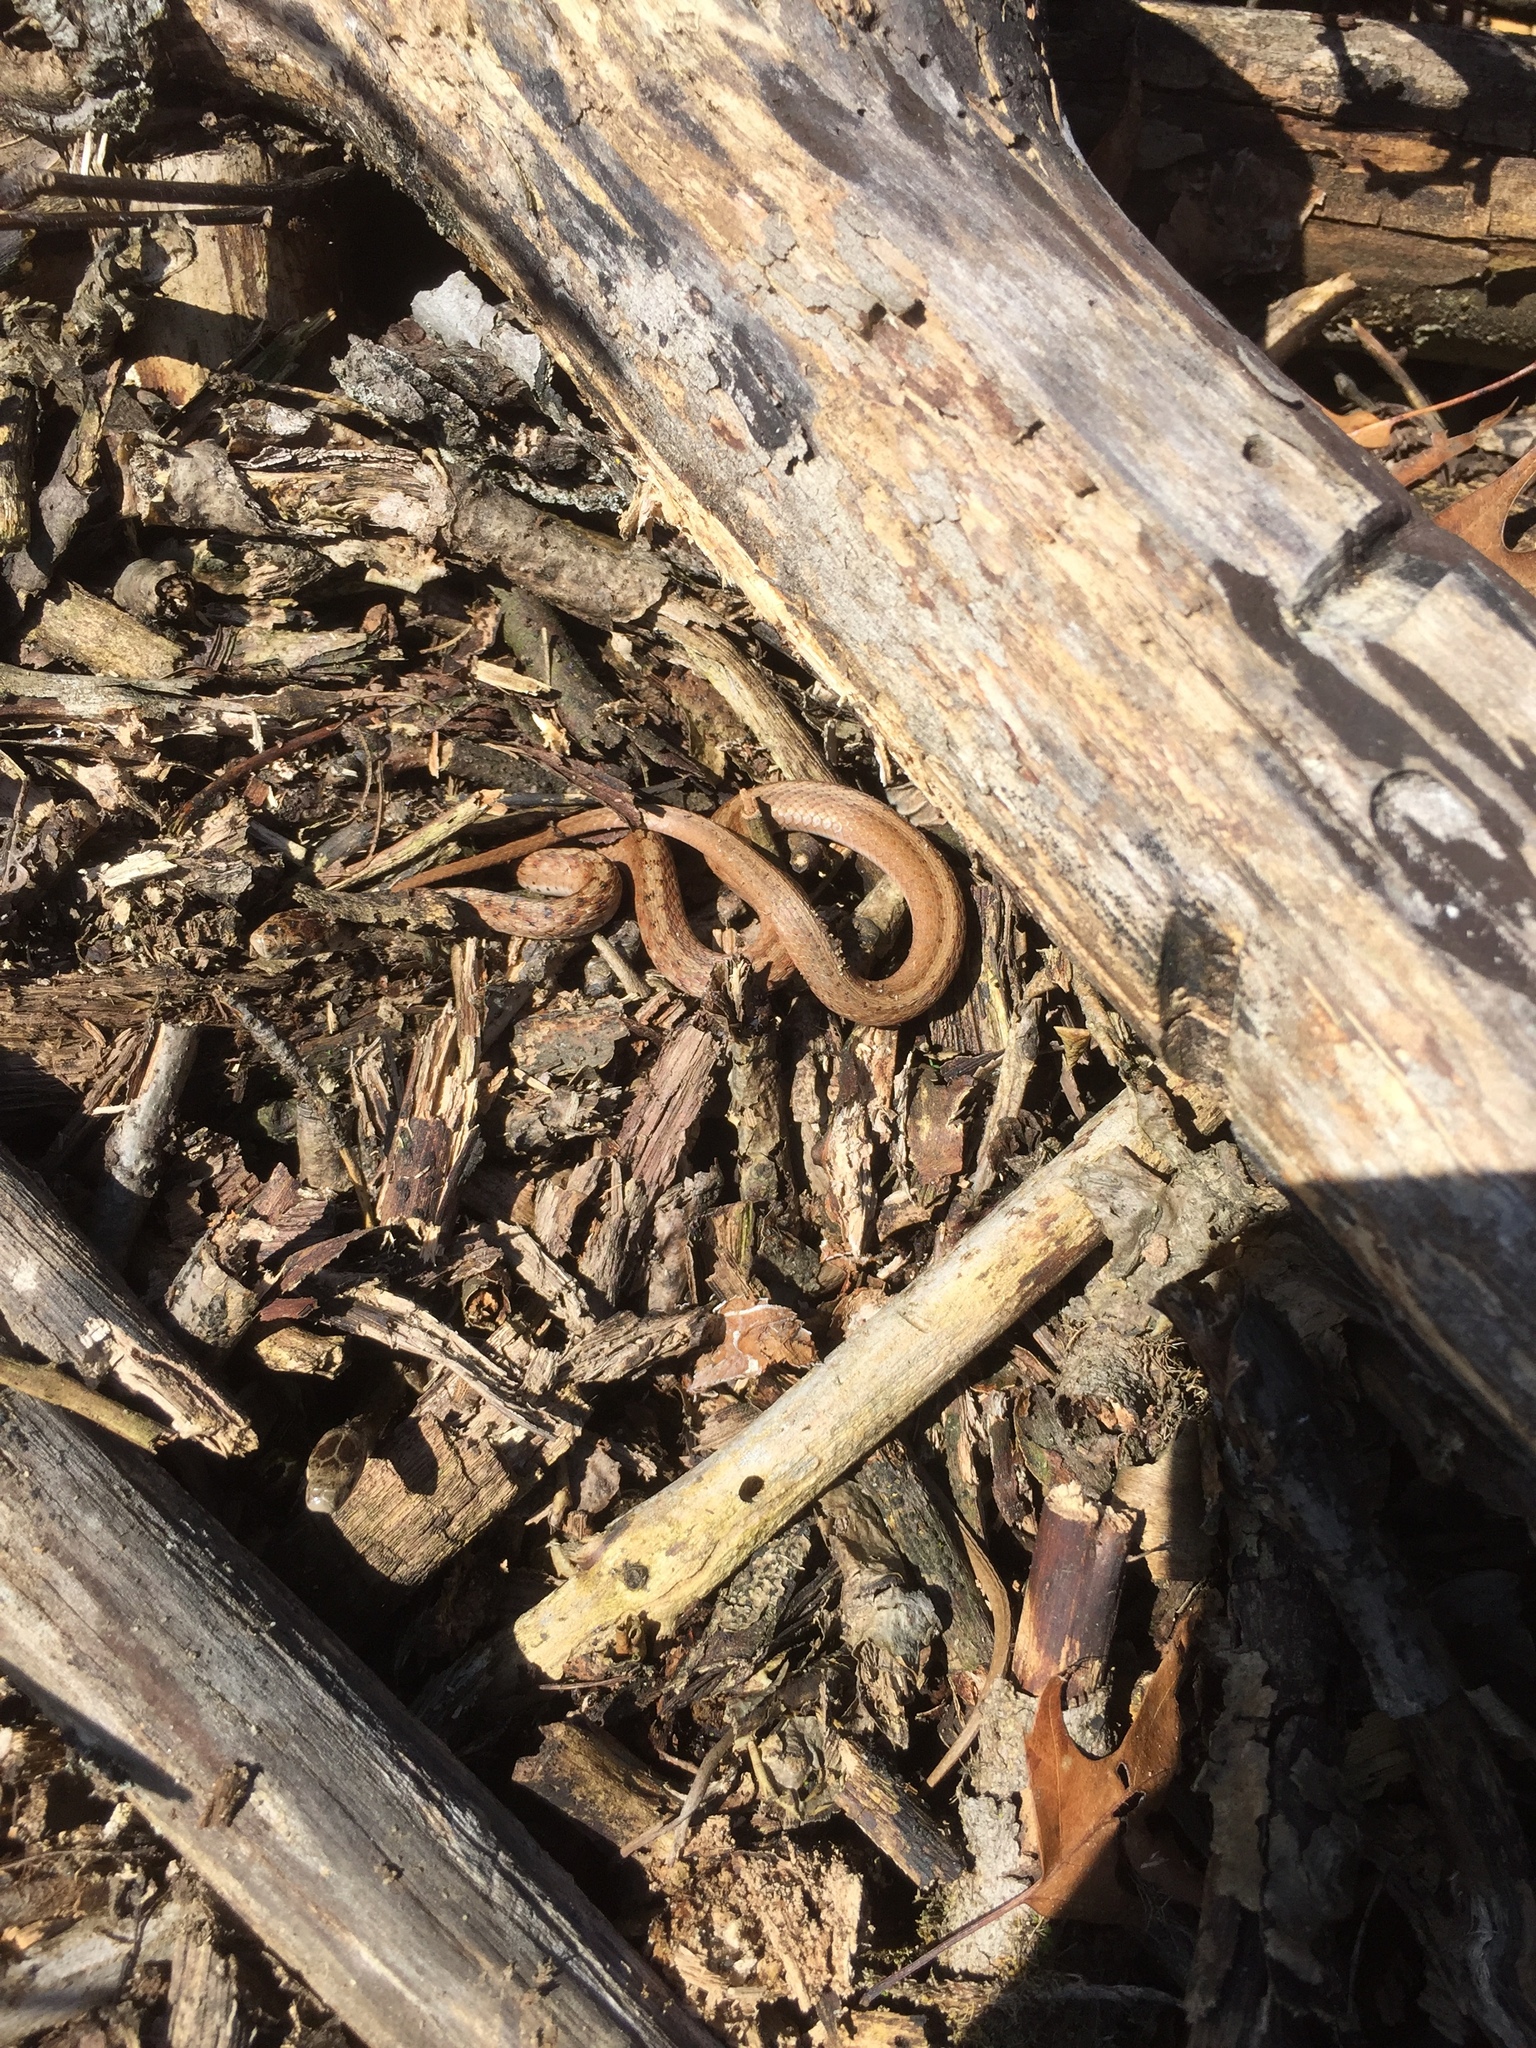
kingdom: Animalia
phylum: Chordata
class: Squamata
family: Colubridae
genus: Storeria
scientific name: Storeria dekayi
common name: (dekay’s) brown snake
